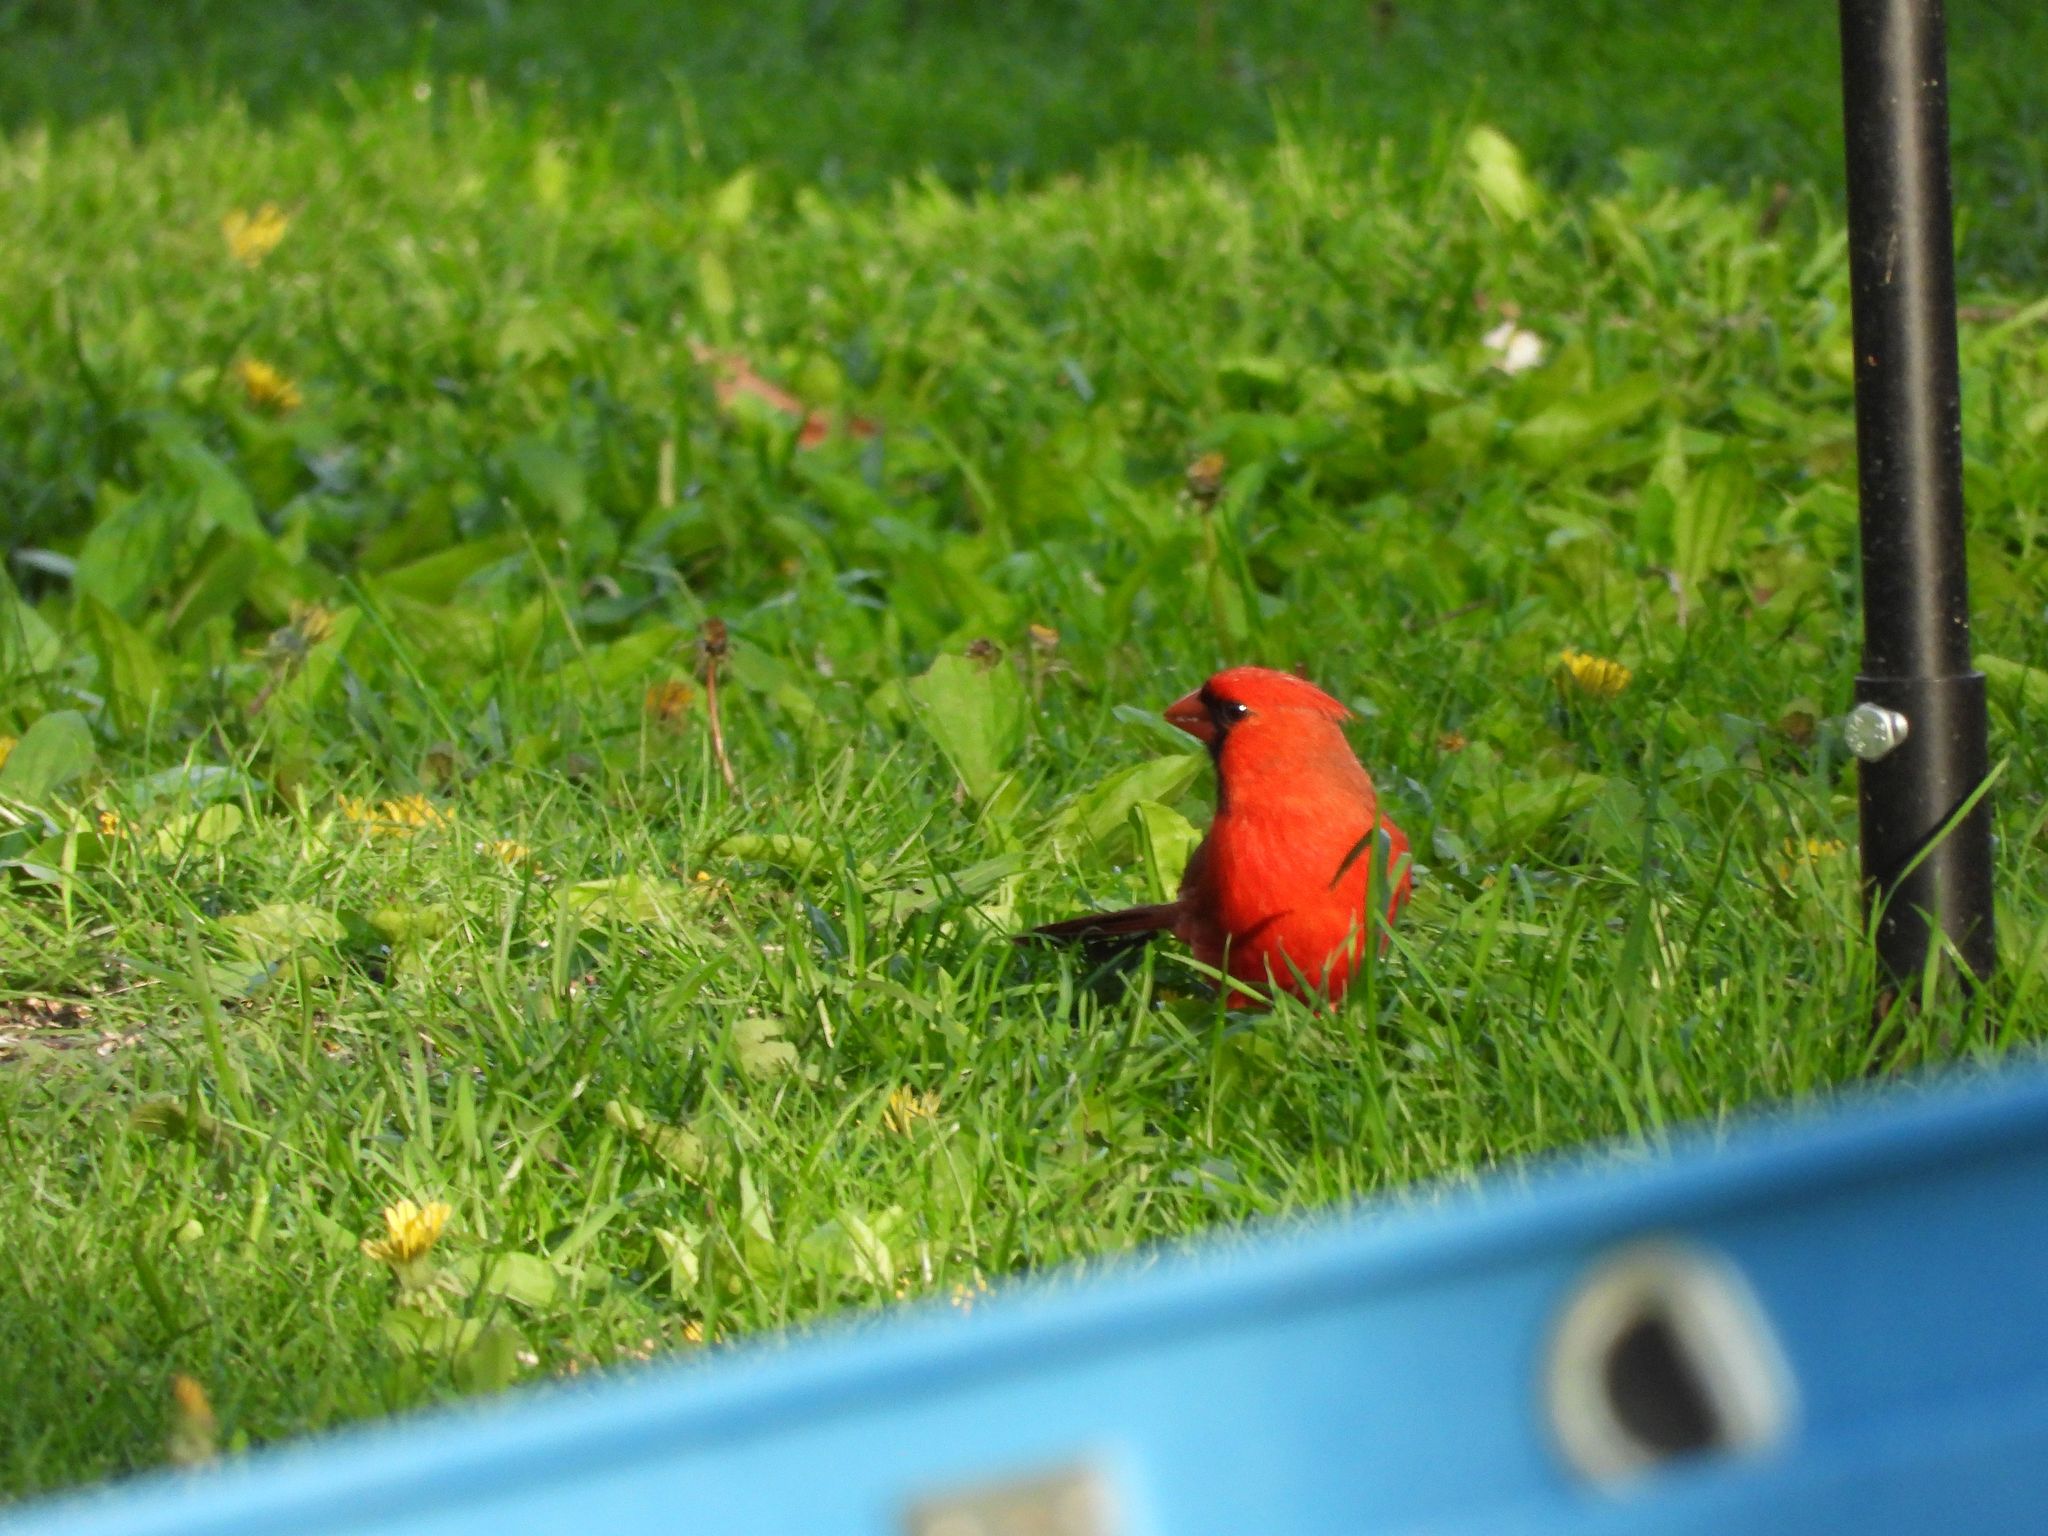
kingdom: Animalia
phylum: Chordata
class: Aves
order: Passeriformes
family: Cardinalidae
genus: Cardinalis
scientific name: Cardinalis cardinalis
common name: Northern cardinal
